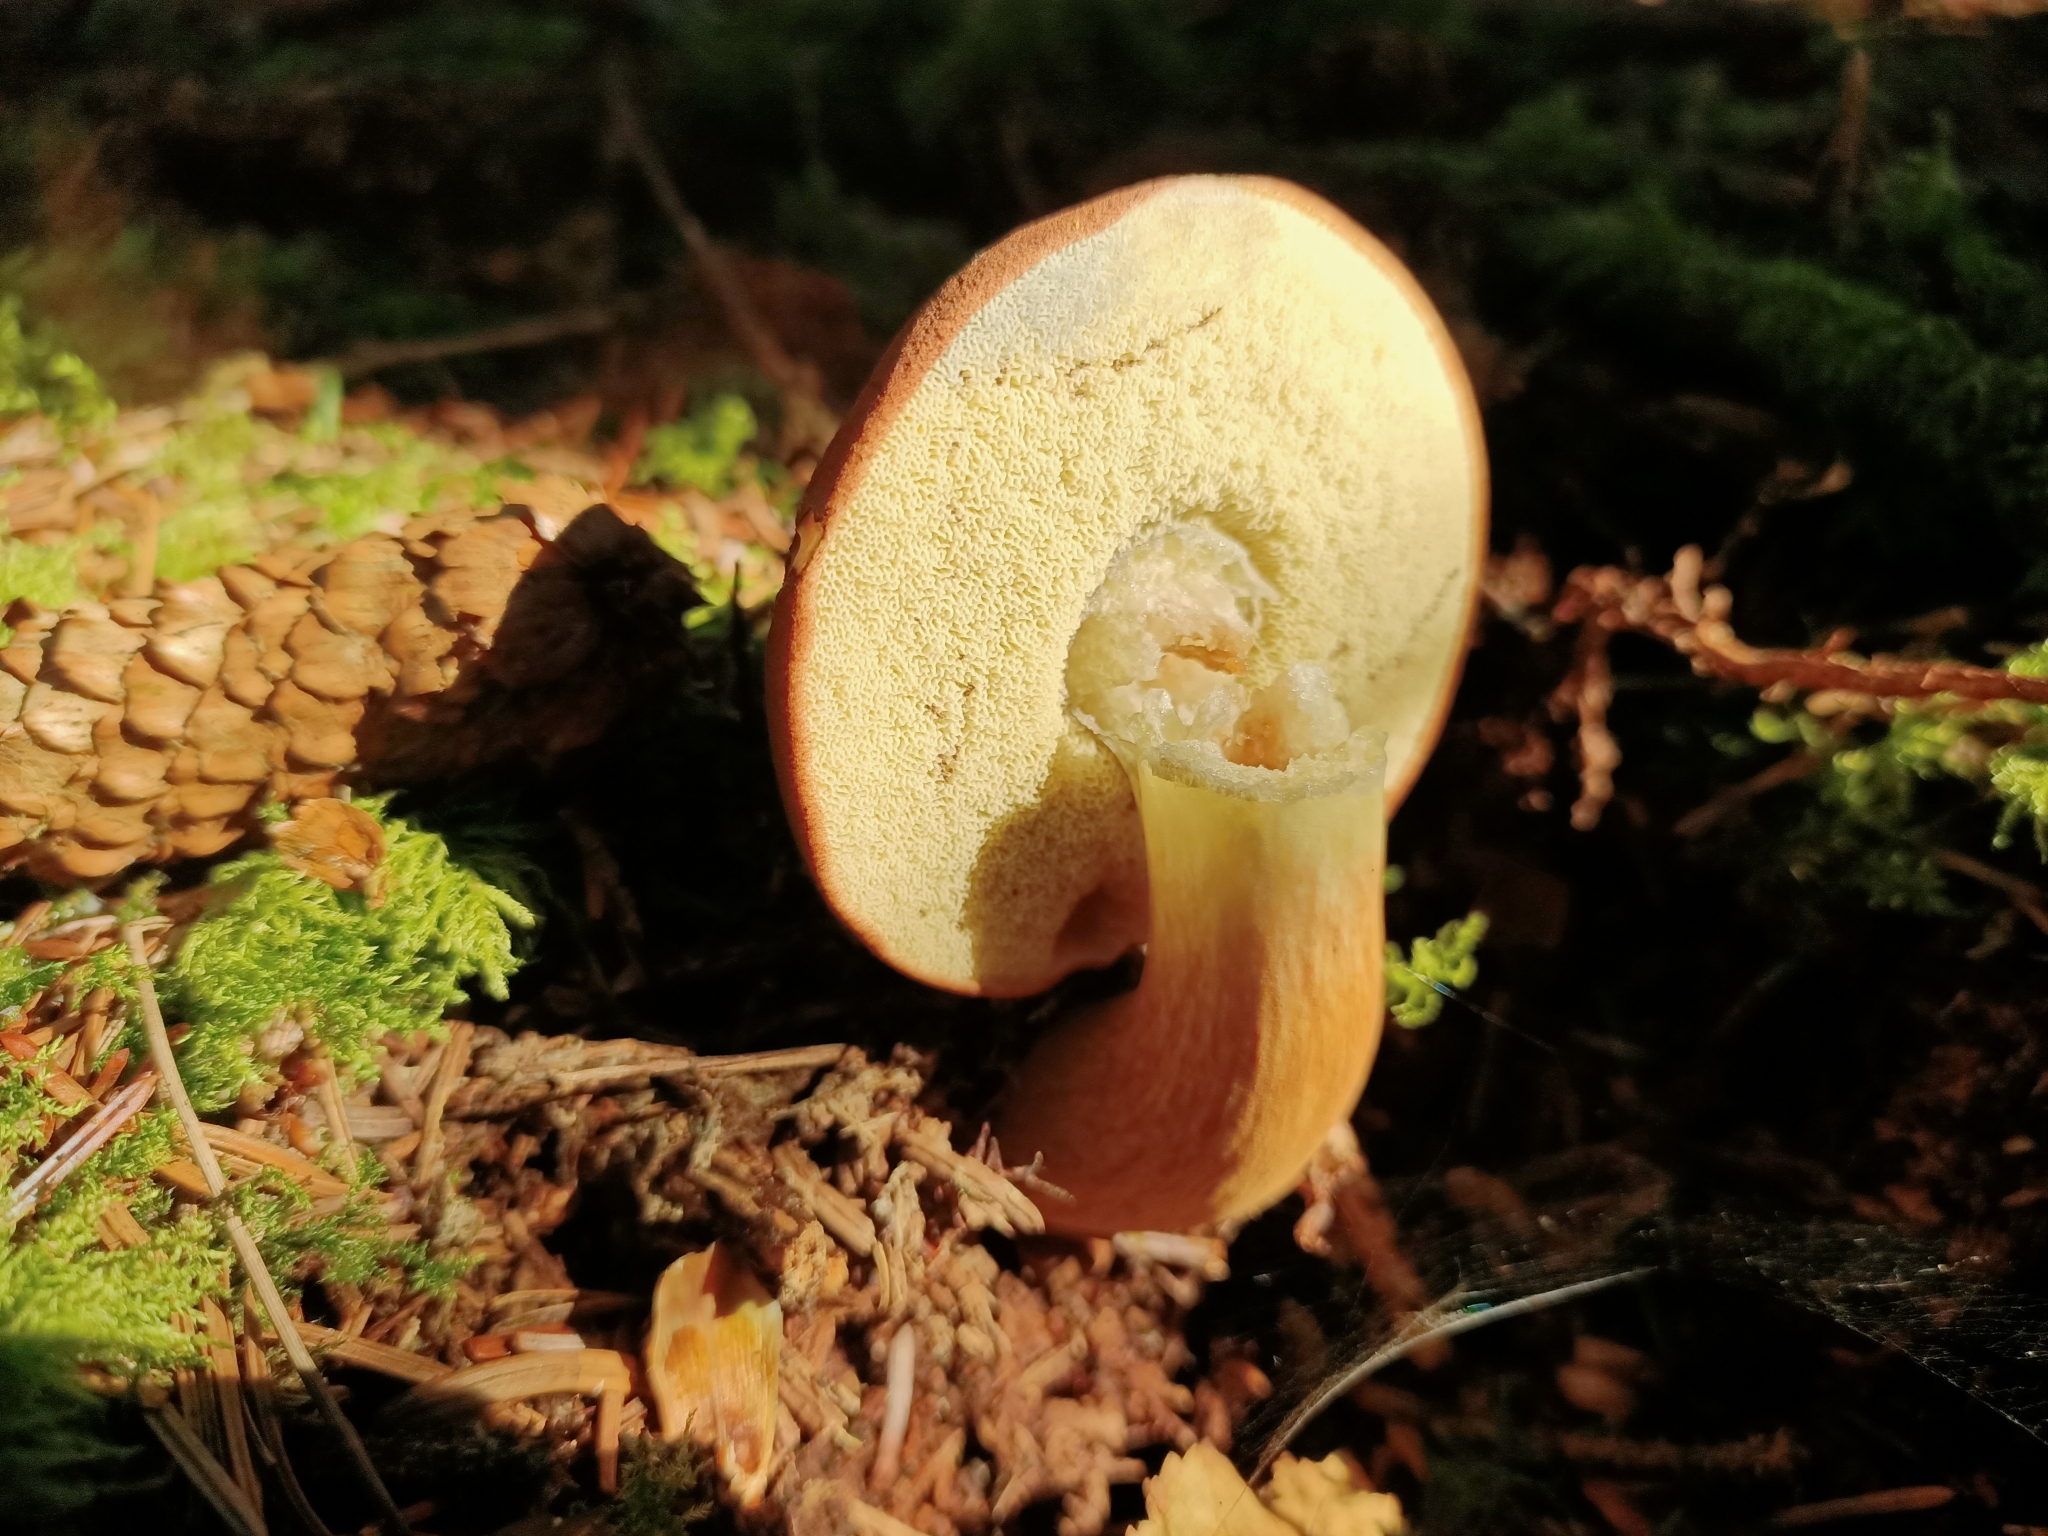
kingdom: Fungi
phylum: Basidiomycota
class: Agaricomycetes
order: Boletales
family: Boletaceae
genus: Imleria
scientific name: Imleria badia
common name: Bay bolete
